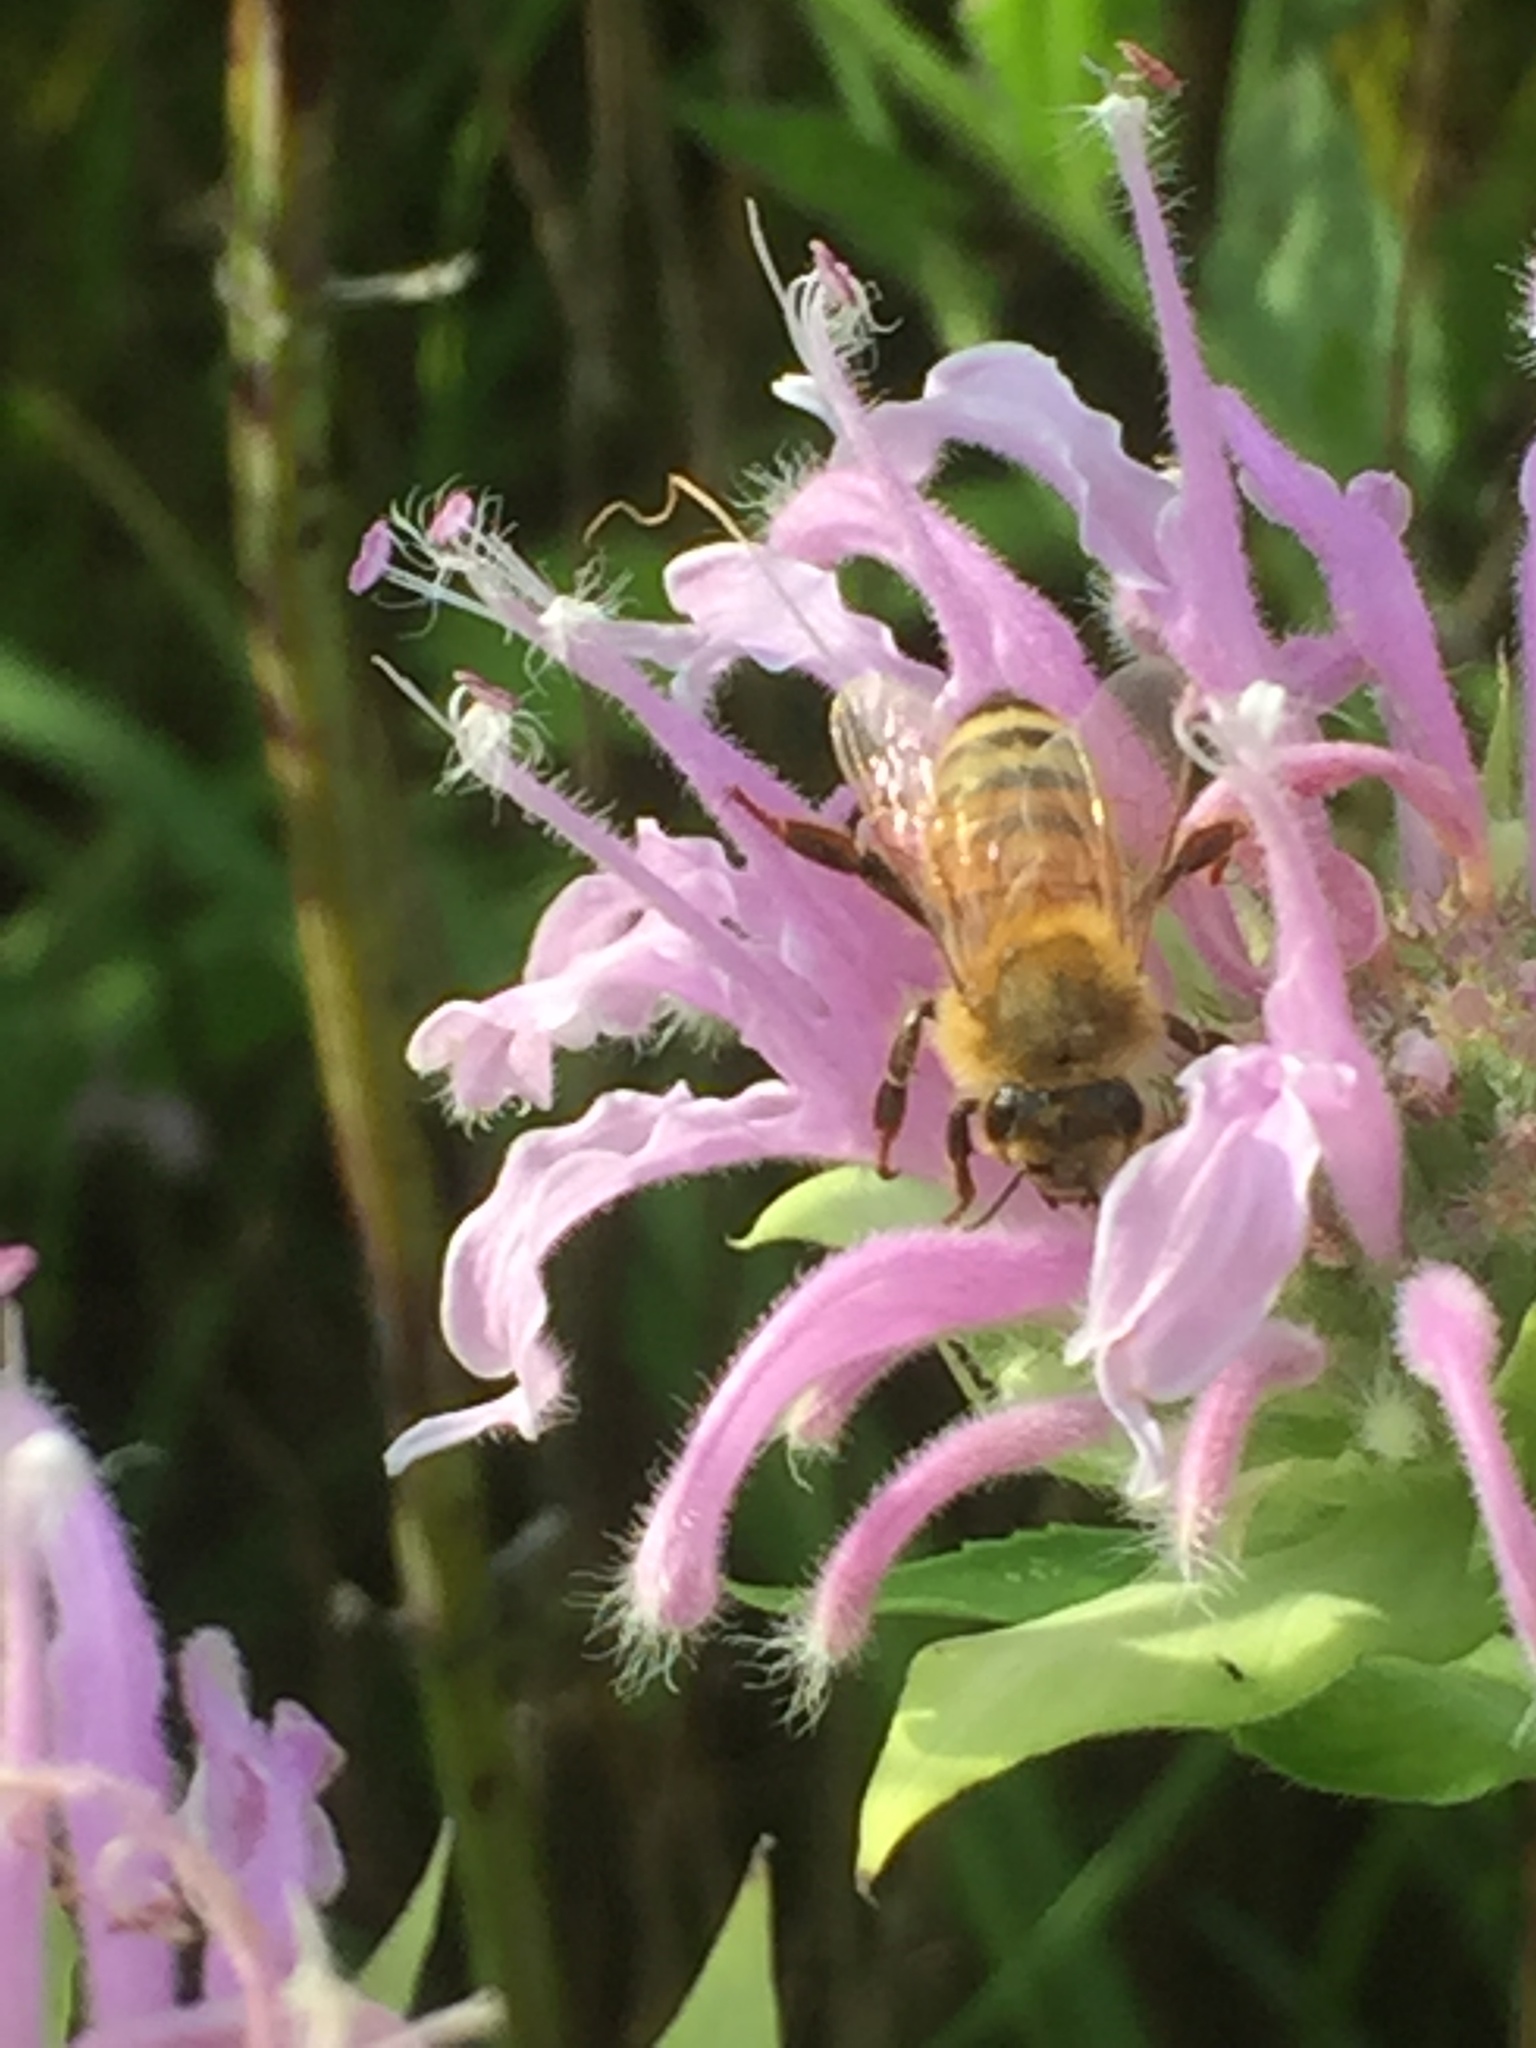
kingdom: Animalia
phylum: Arthropoda
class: Insecta
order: Hymenoptera
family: Apidae
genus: Apis
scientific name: Apis mellifera
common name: Honey bee
